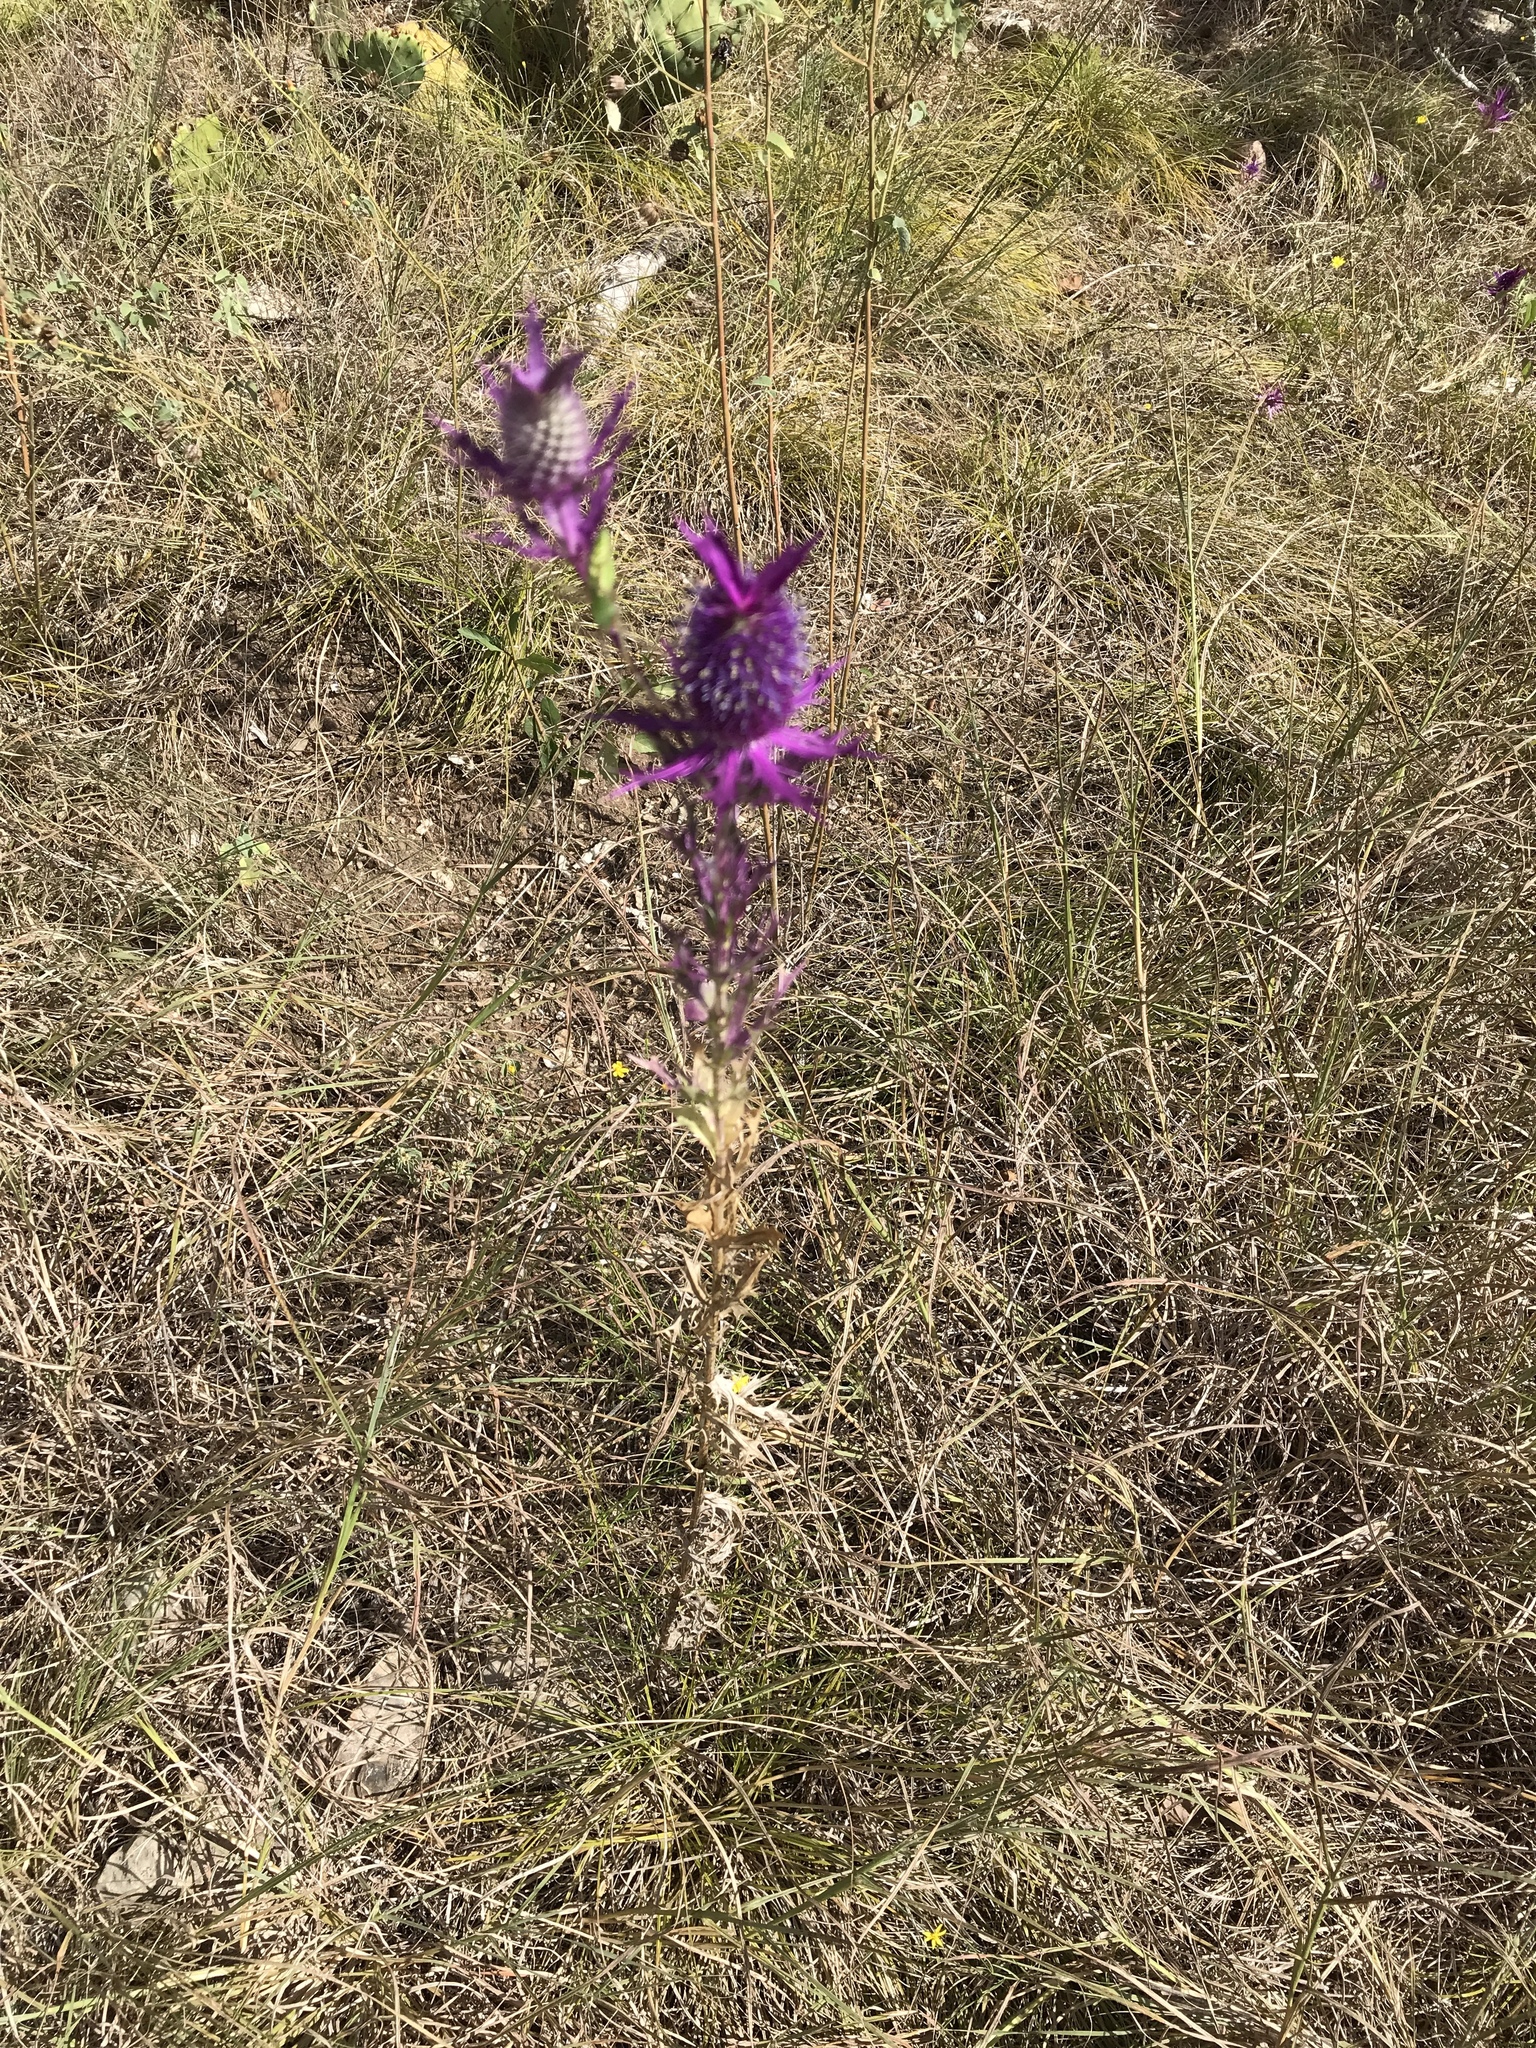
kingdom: Plantae
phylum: Tracheophyta
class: Magnoliopsida
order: Apiales
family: Apiaceae
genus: Eryngium
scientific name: Eryngium leavenworthii
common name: Leavenworth's eryngo
